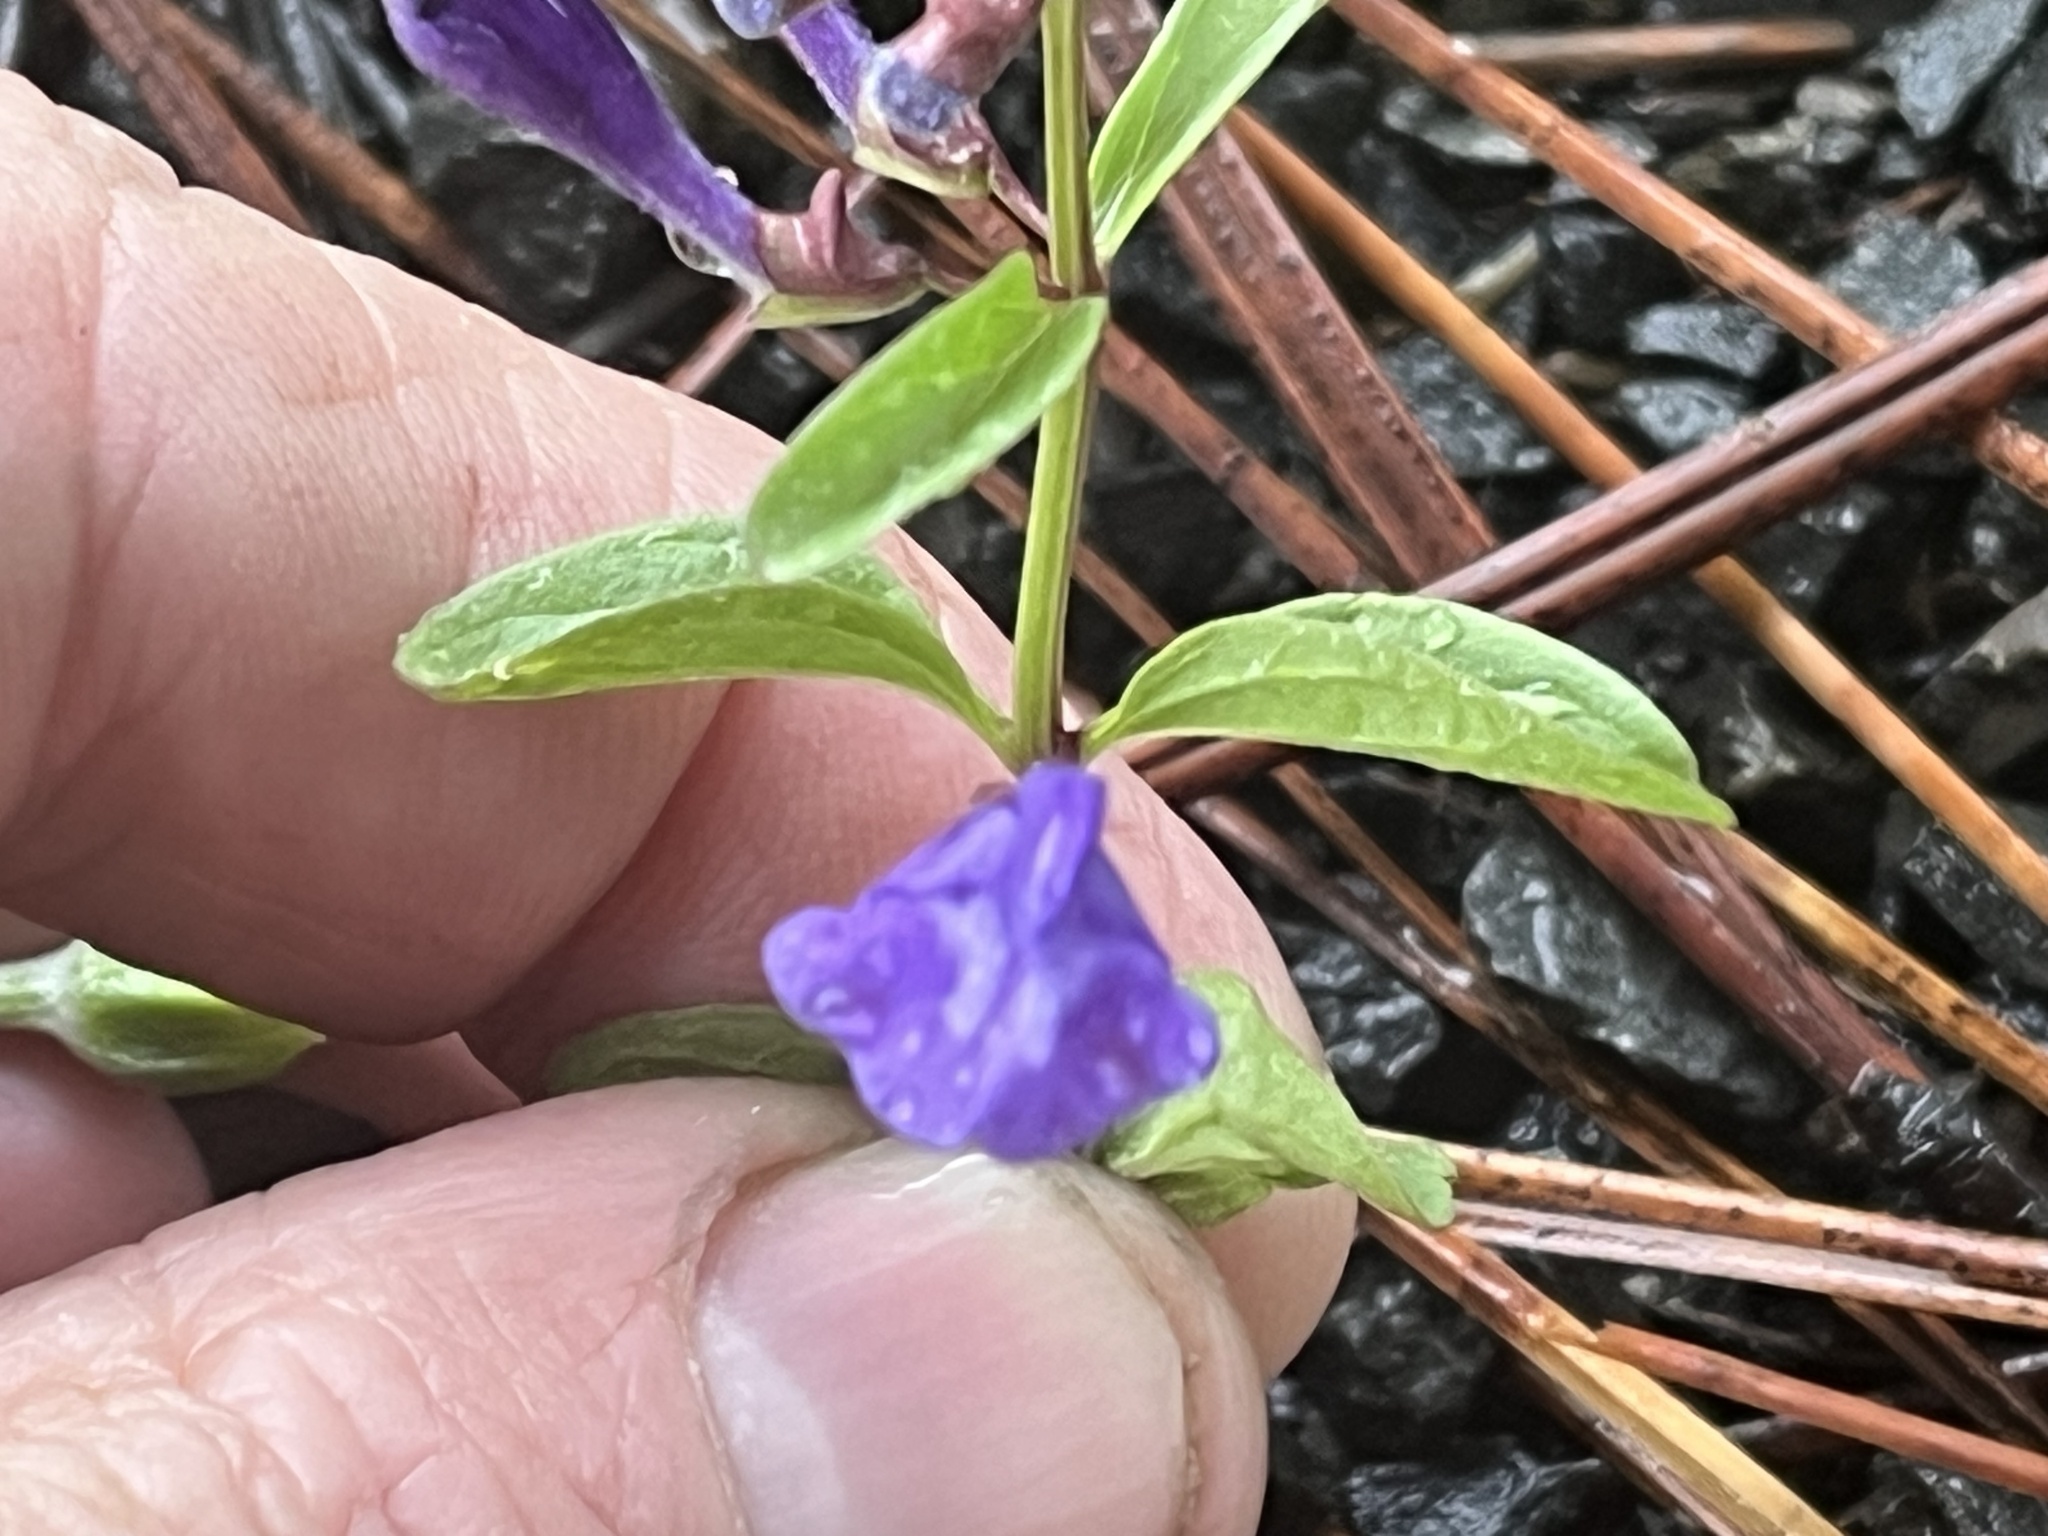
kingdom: Plantae
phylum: Tracheophyta
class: Magnoliopsida
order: Lamiales
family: Lamiaceae
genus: Scutellaria
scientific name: Scutellaria angustifolia
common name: Narrow-leaved skullcap
